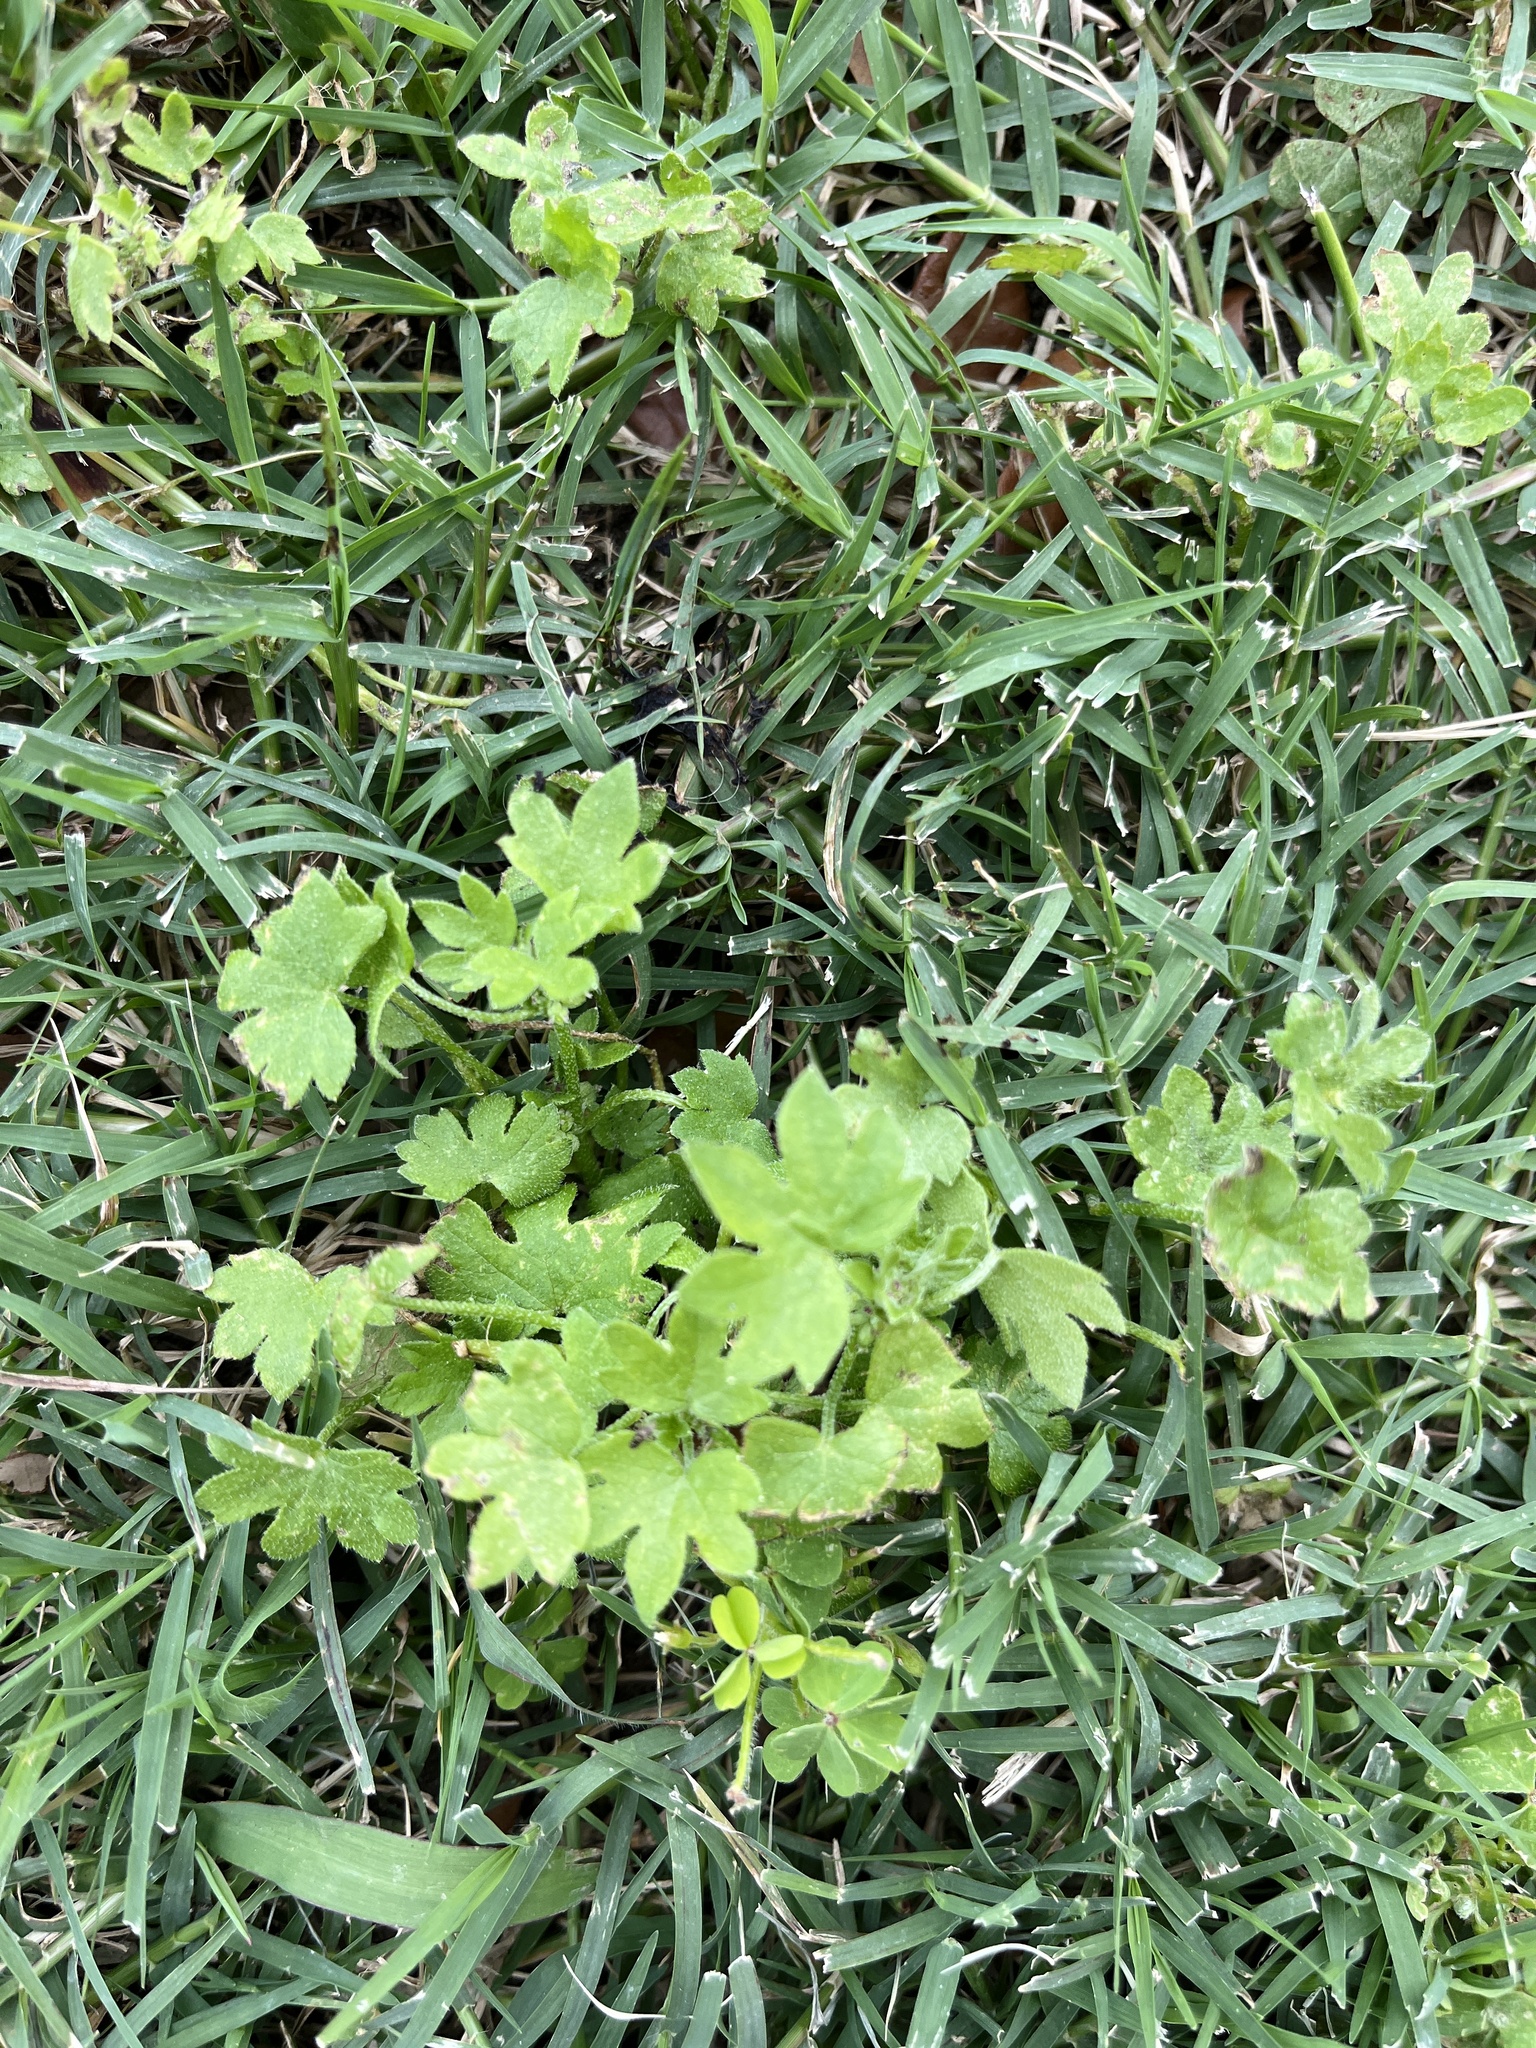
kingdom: Plantae
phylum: Tracheophyta
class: Magnoliopsida
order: Apiales
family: Apiaceae
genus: Bowlesia
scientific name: Bowlesia incana
